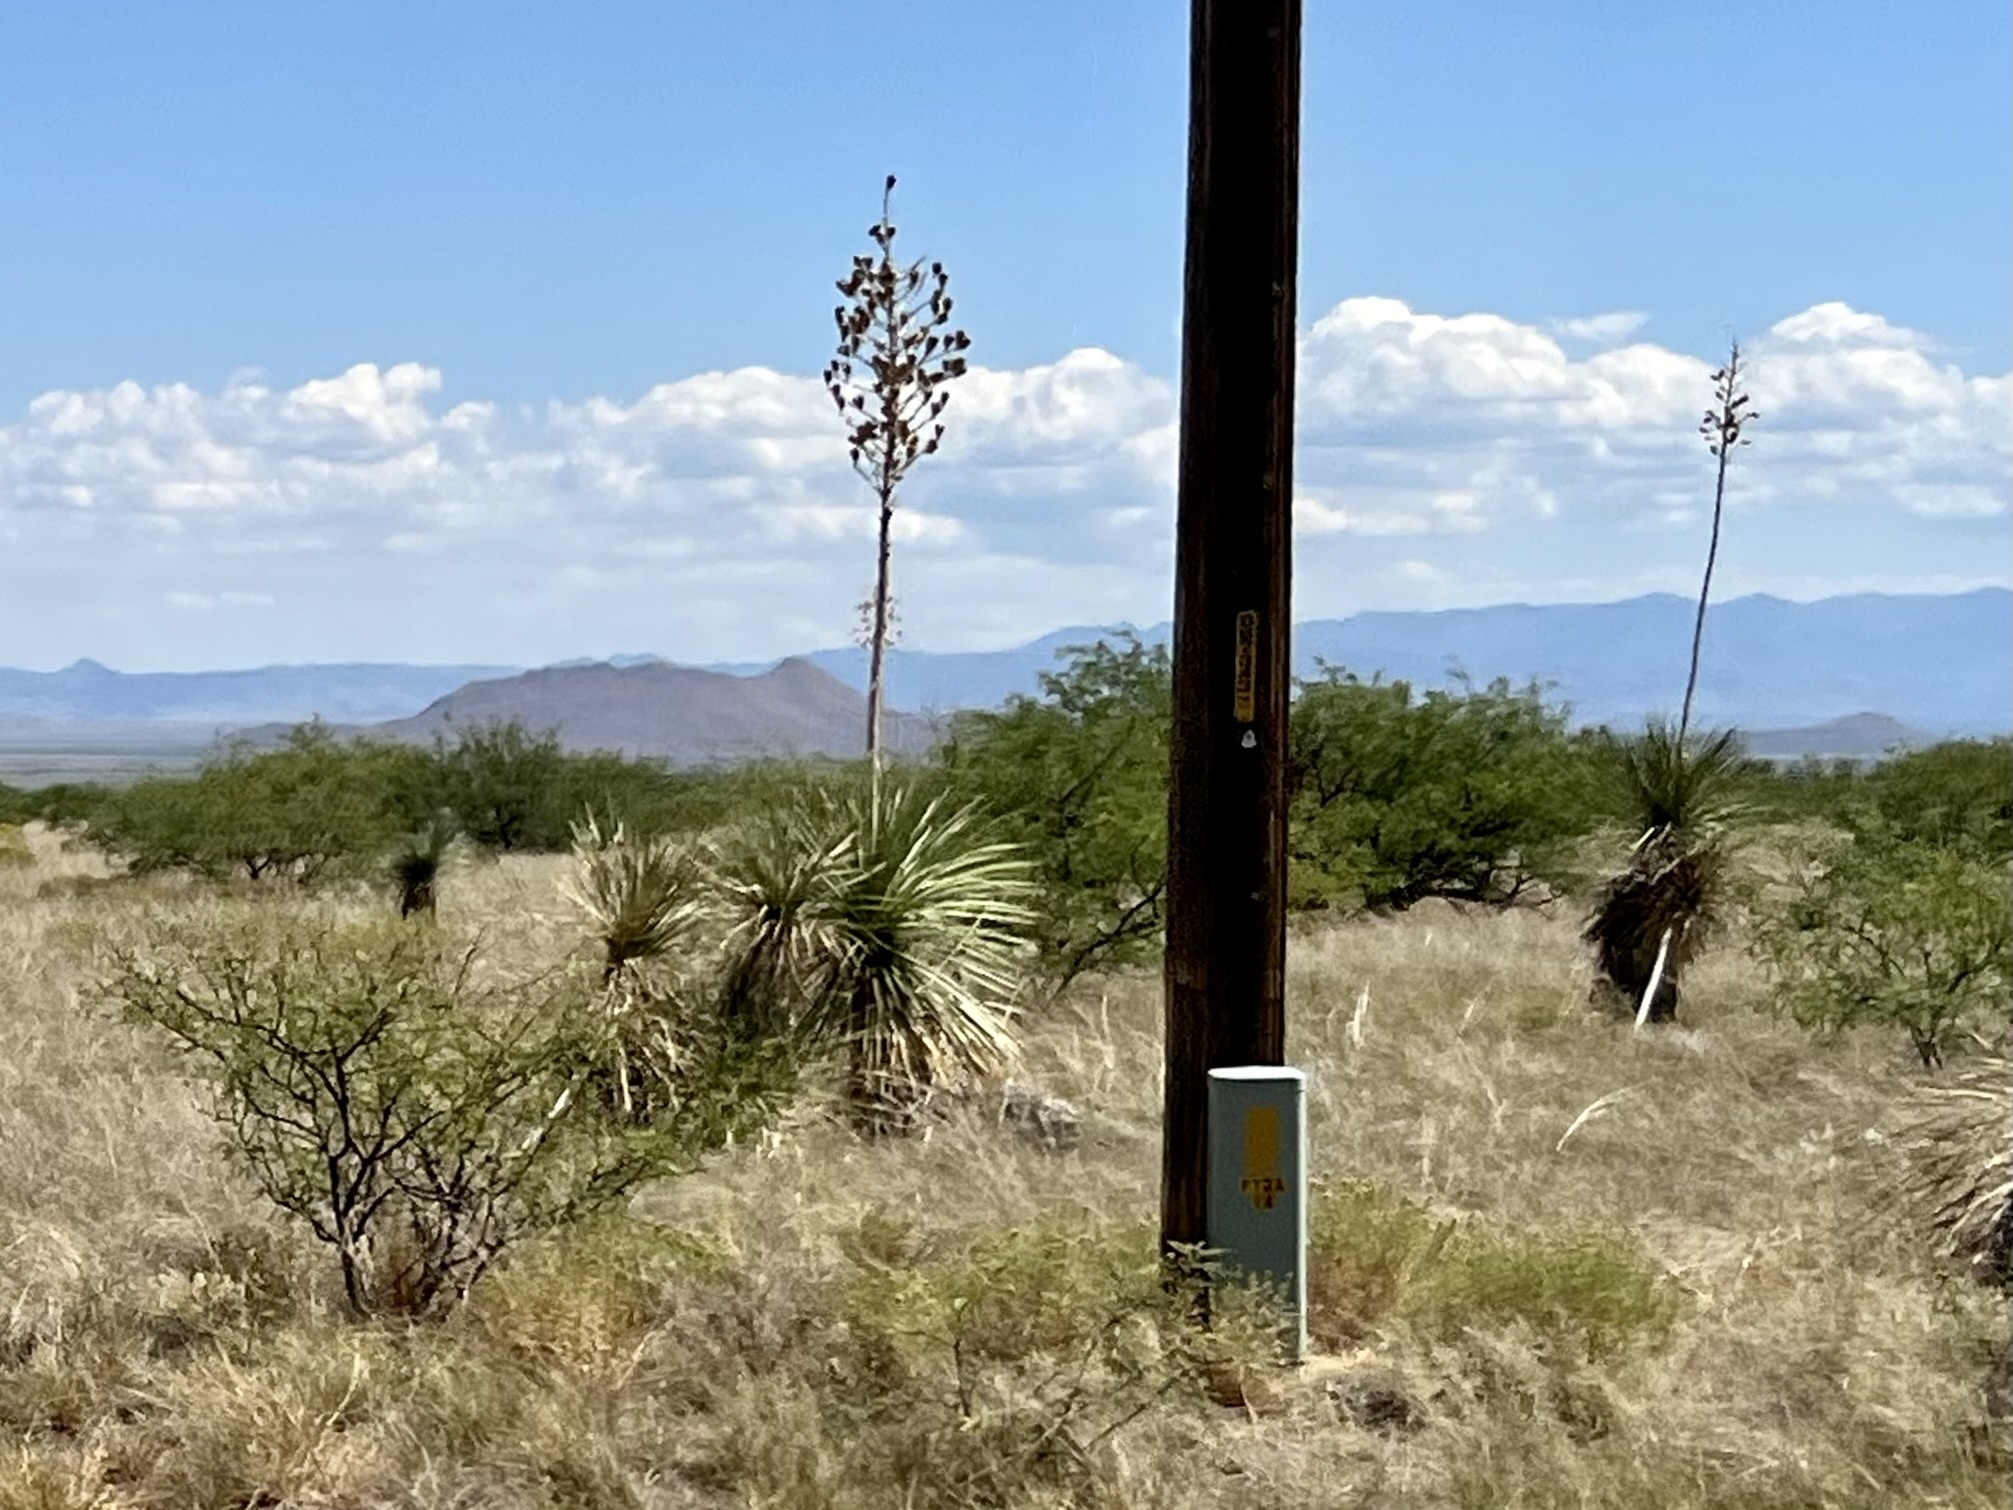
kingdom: Plantae
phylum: Tracheophyta
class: Liliopsida
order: Asparagales
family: Asparagaceae
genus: Yucca
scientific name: Yucca elata
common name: Palmella
